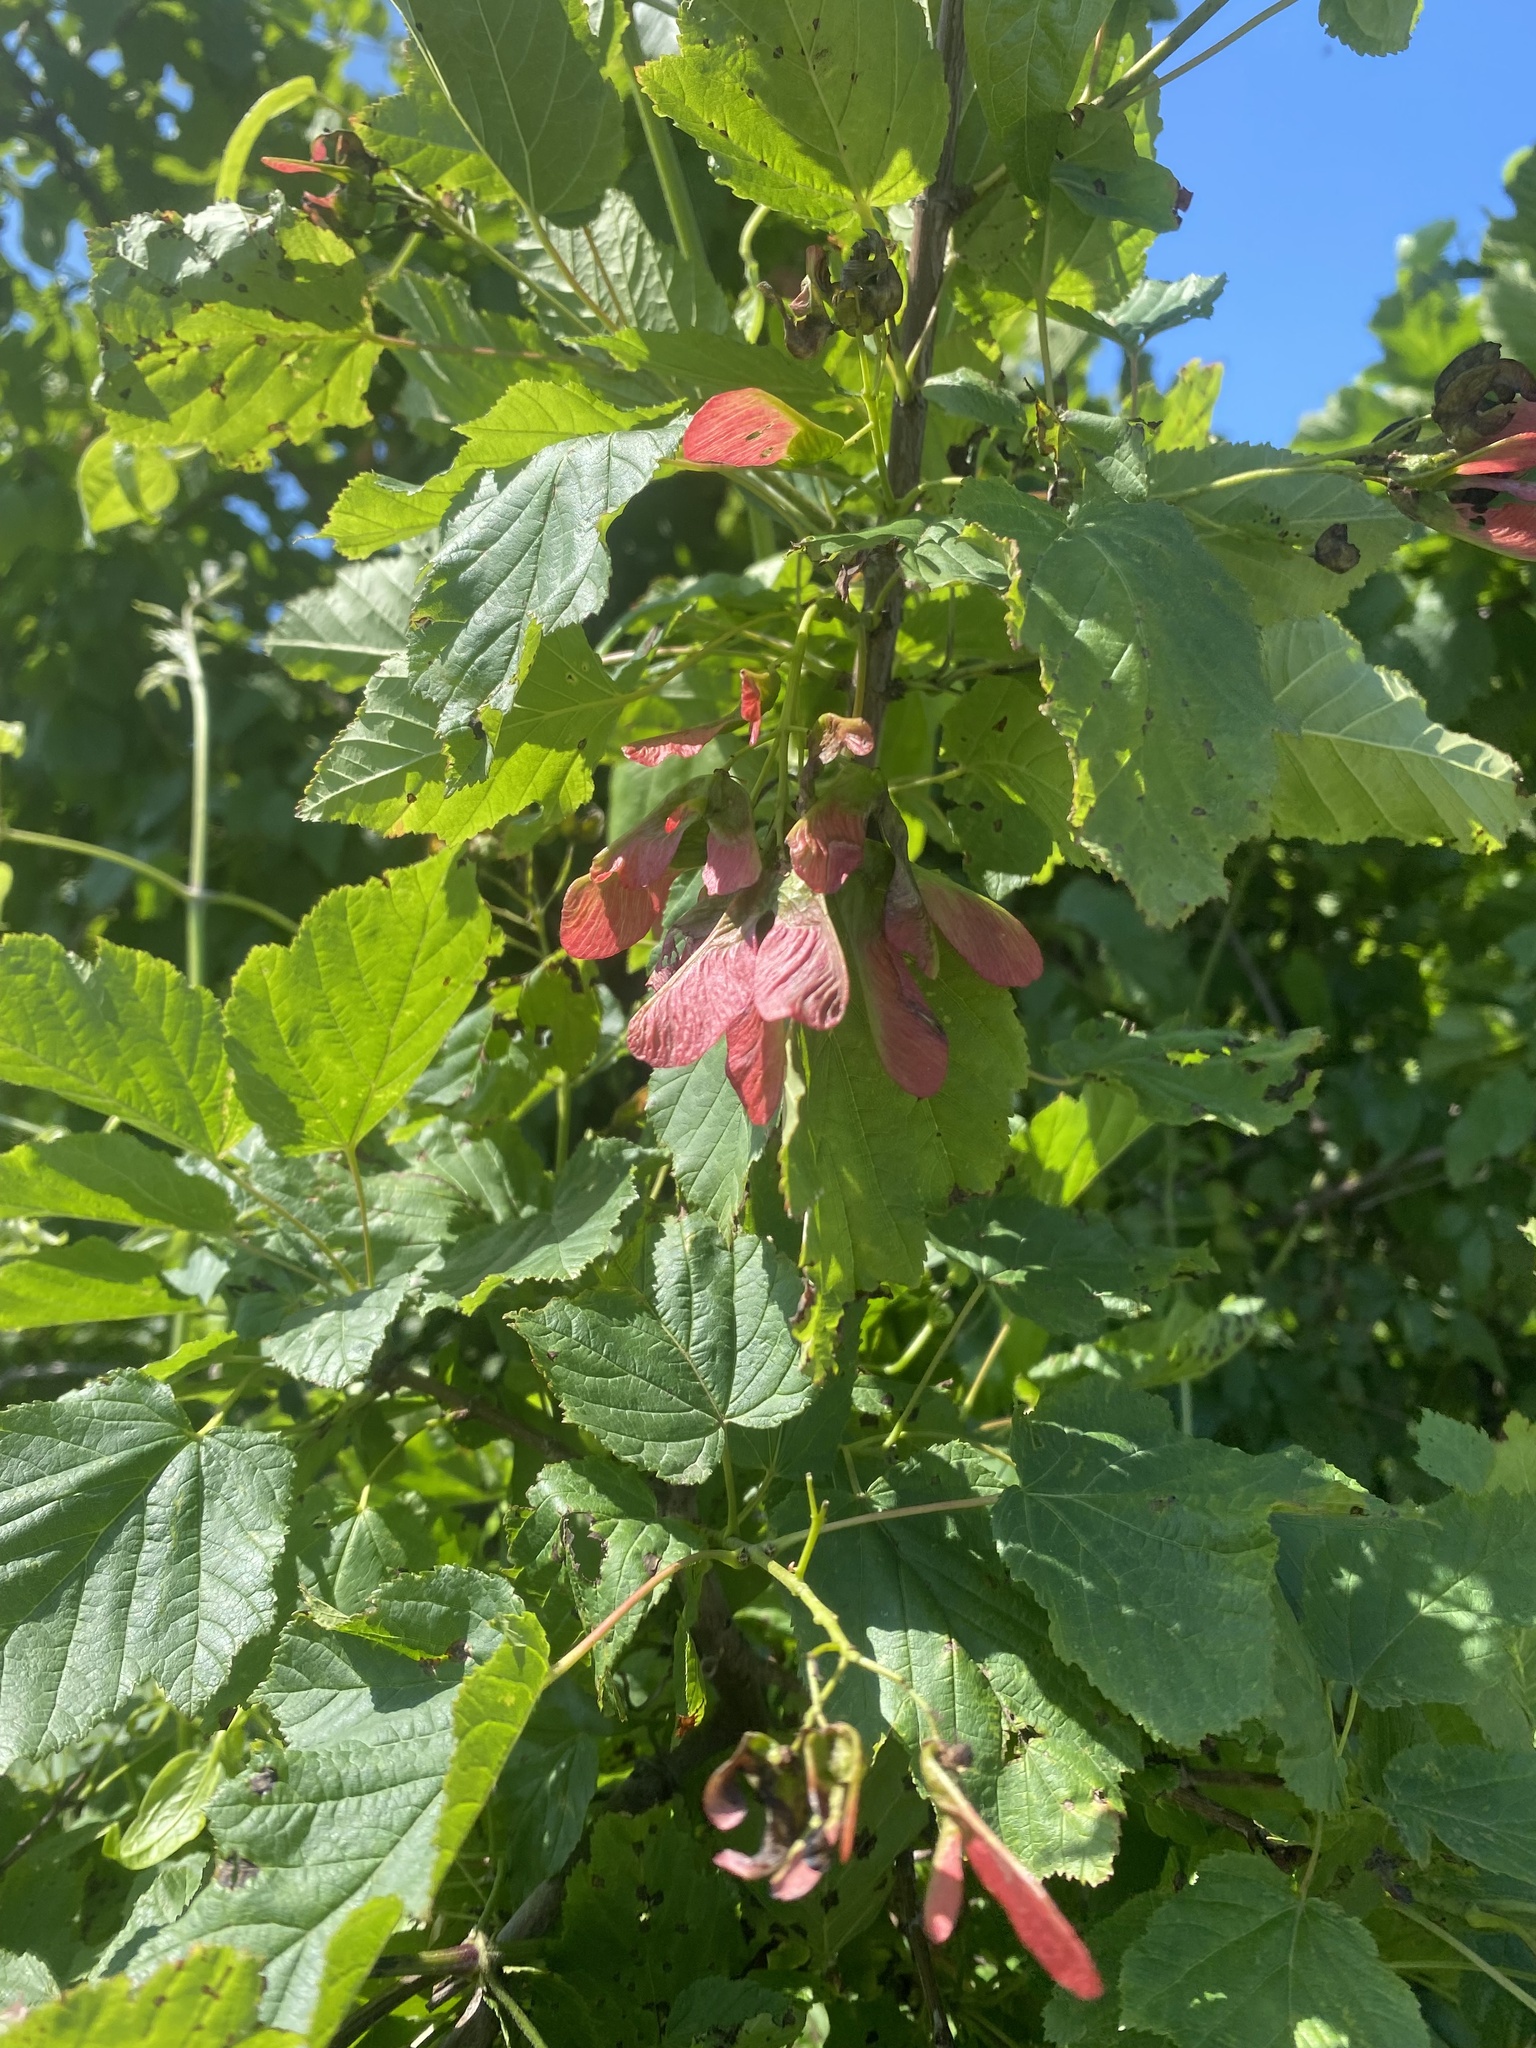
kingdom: Plantae
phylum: Tracheophyta
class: Magnoliopsida
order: Sapindales
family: Sapindaceae
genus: Acer
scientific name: Acer tataricum
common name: Tartar maple
